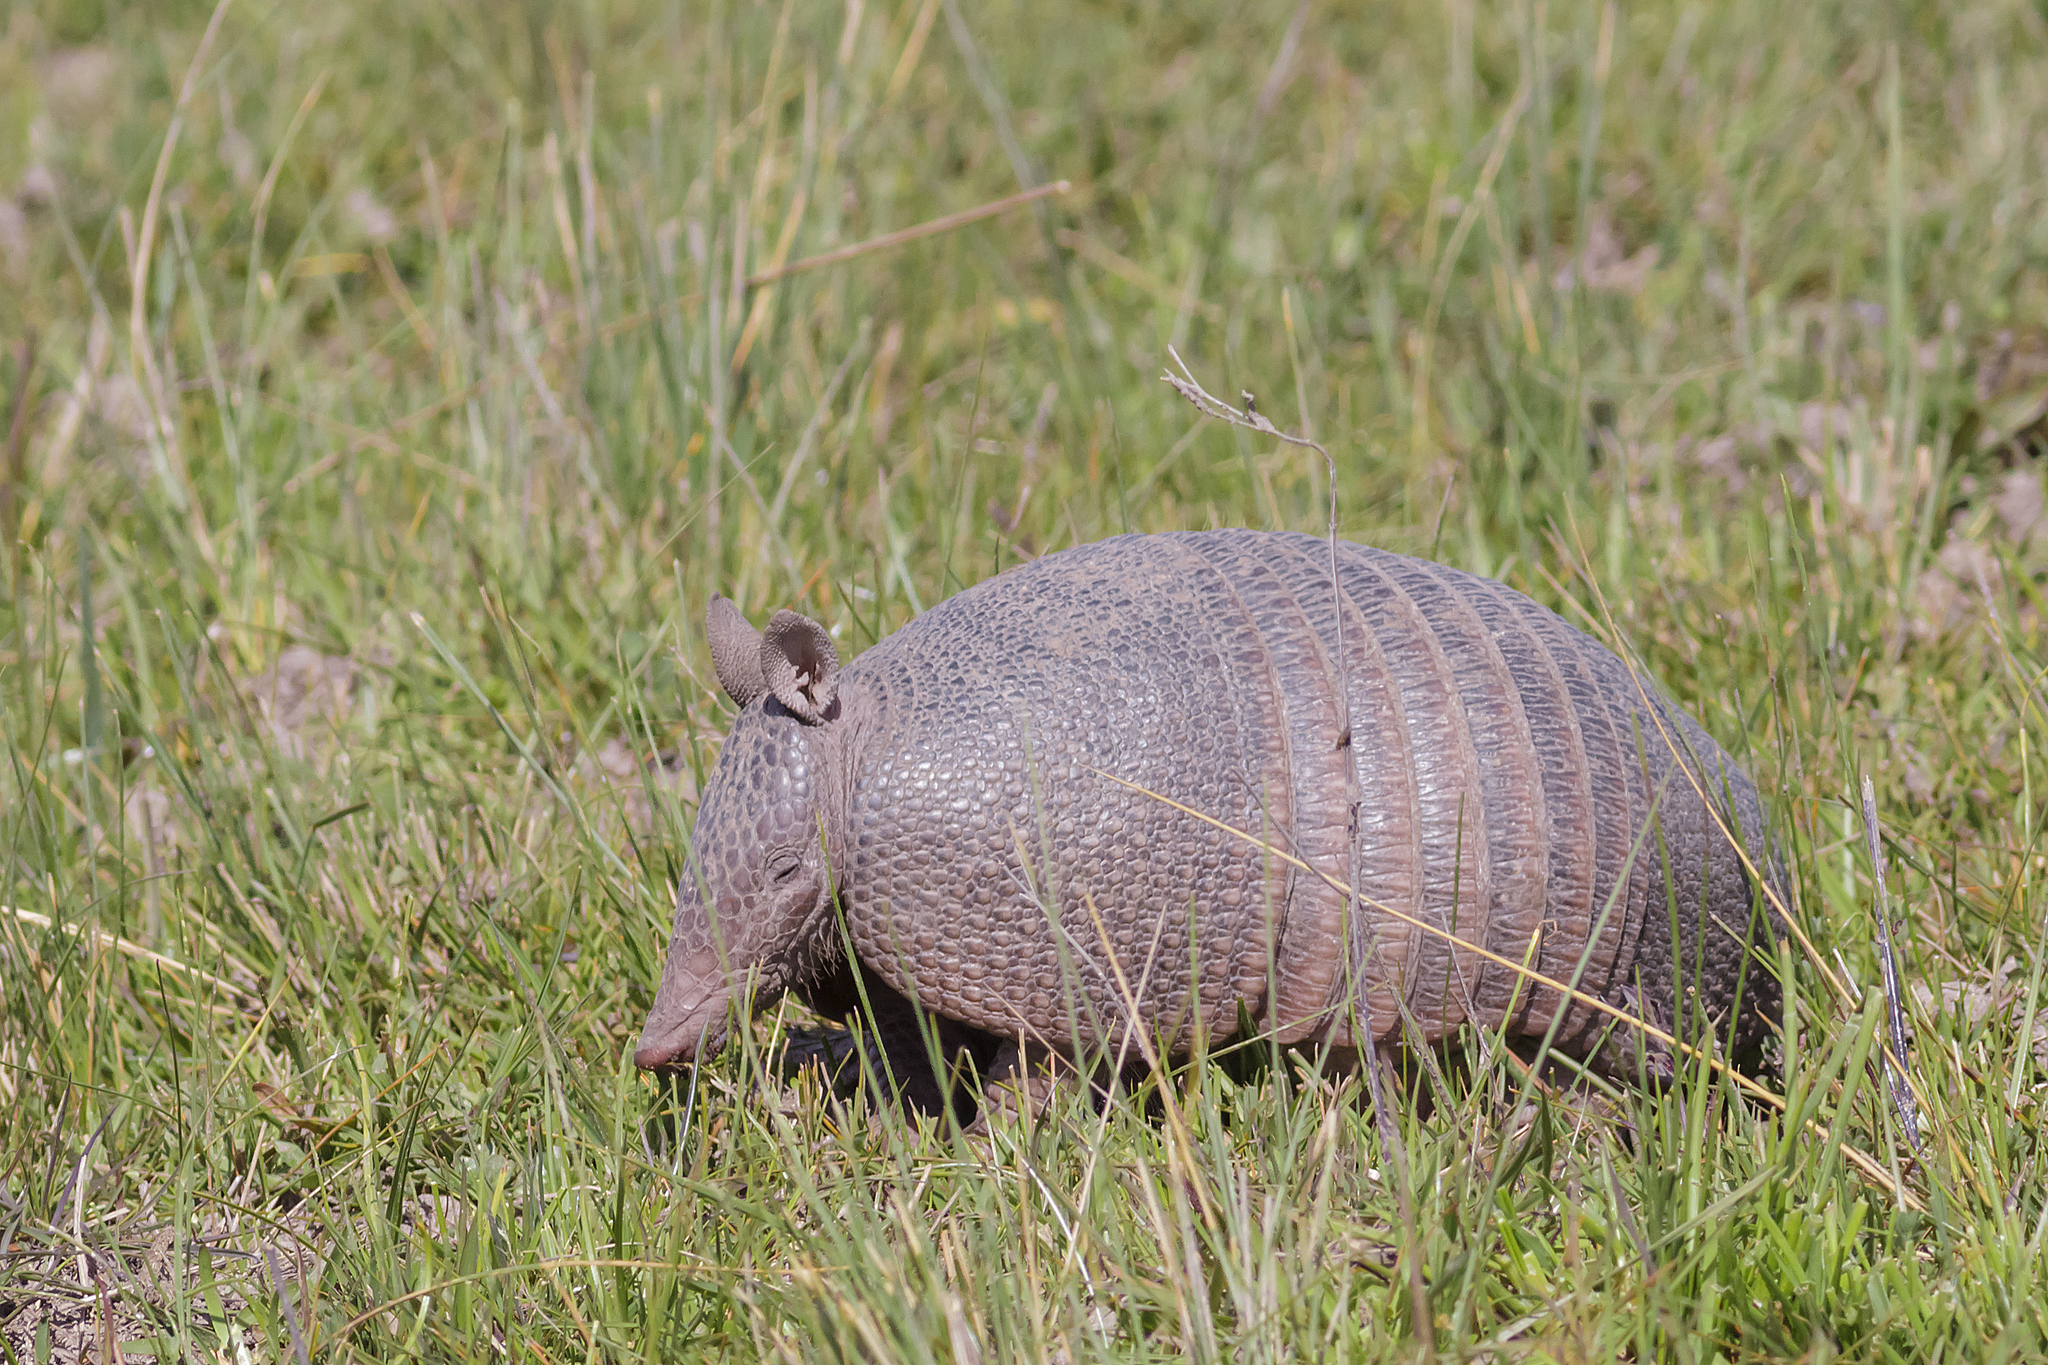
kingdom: Animalia
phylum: Chordata
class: Mammalia
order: Cingulata
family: Dasypodidae
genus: Dasypus
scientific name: Dasypus septemcinctus
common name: Seven-banded armadillo
